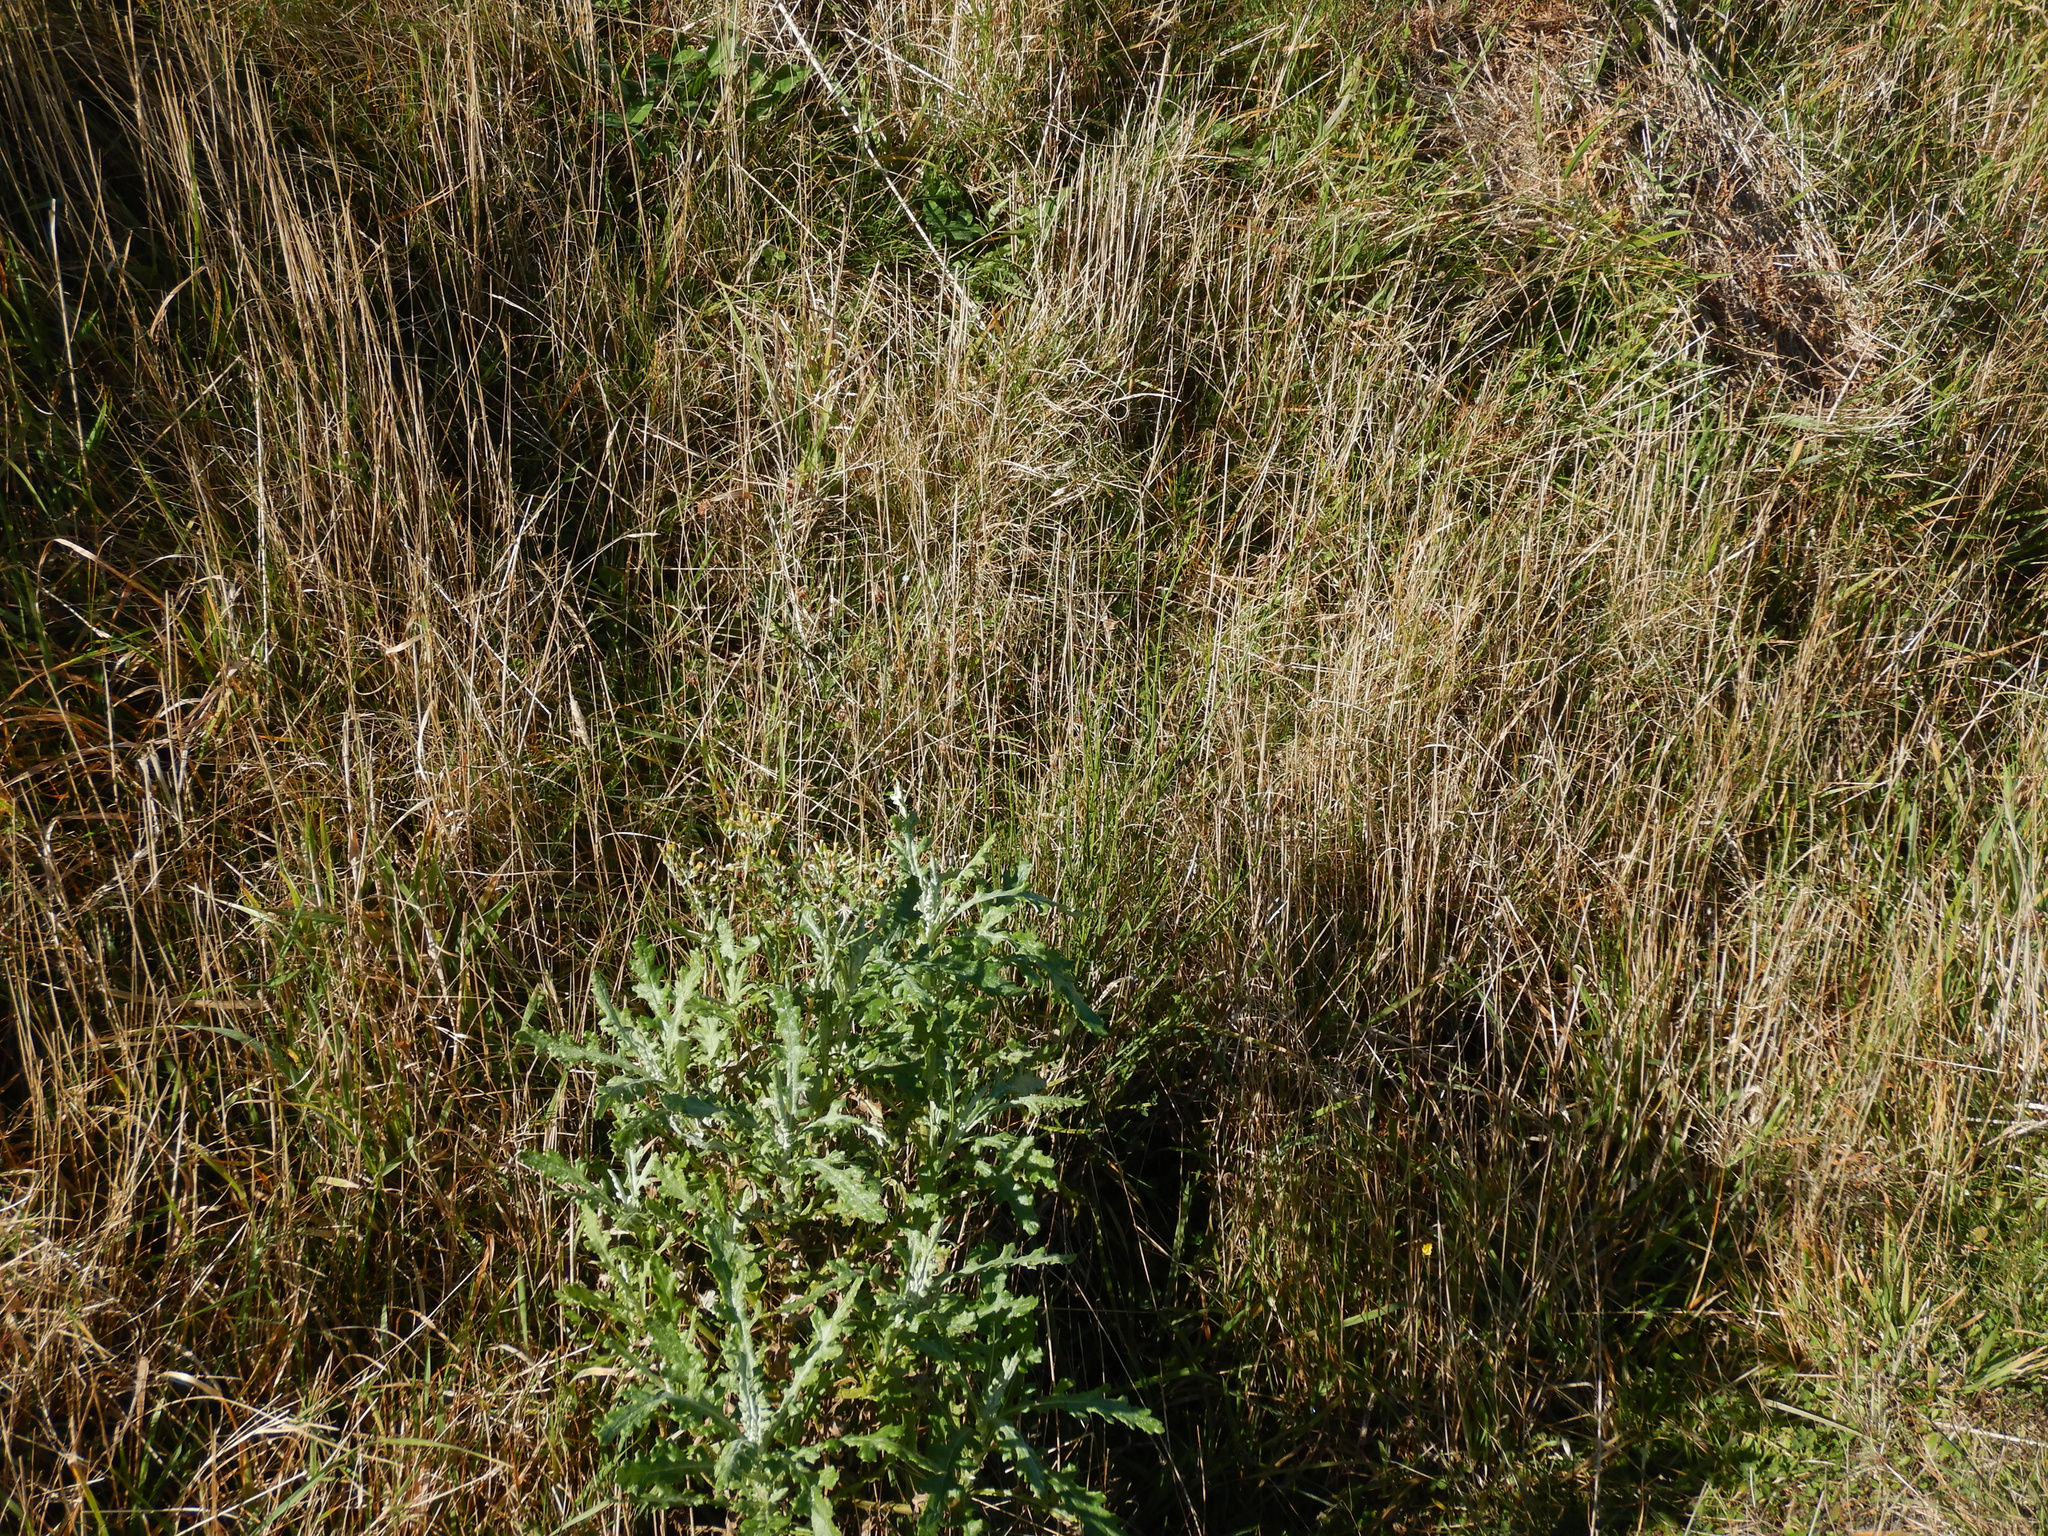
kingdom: Plantae
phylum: Tracheophyta
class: Magnoliopsida
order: Asterales
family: Asteraceae
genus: Senecio
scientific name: Senecio glomeratus
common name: Cutleaf burnweed
